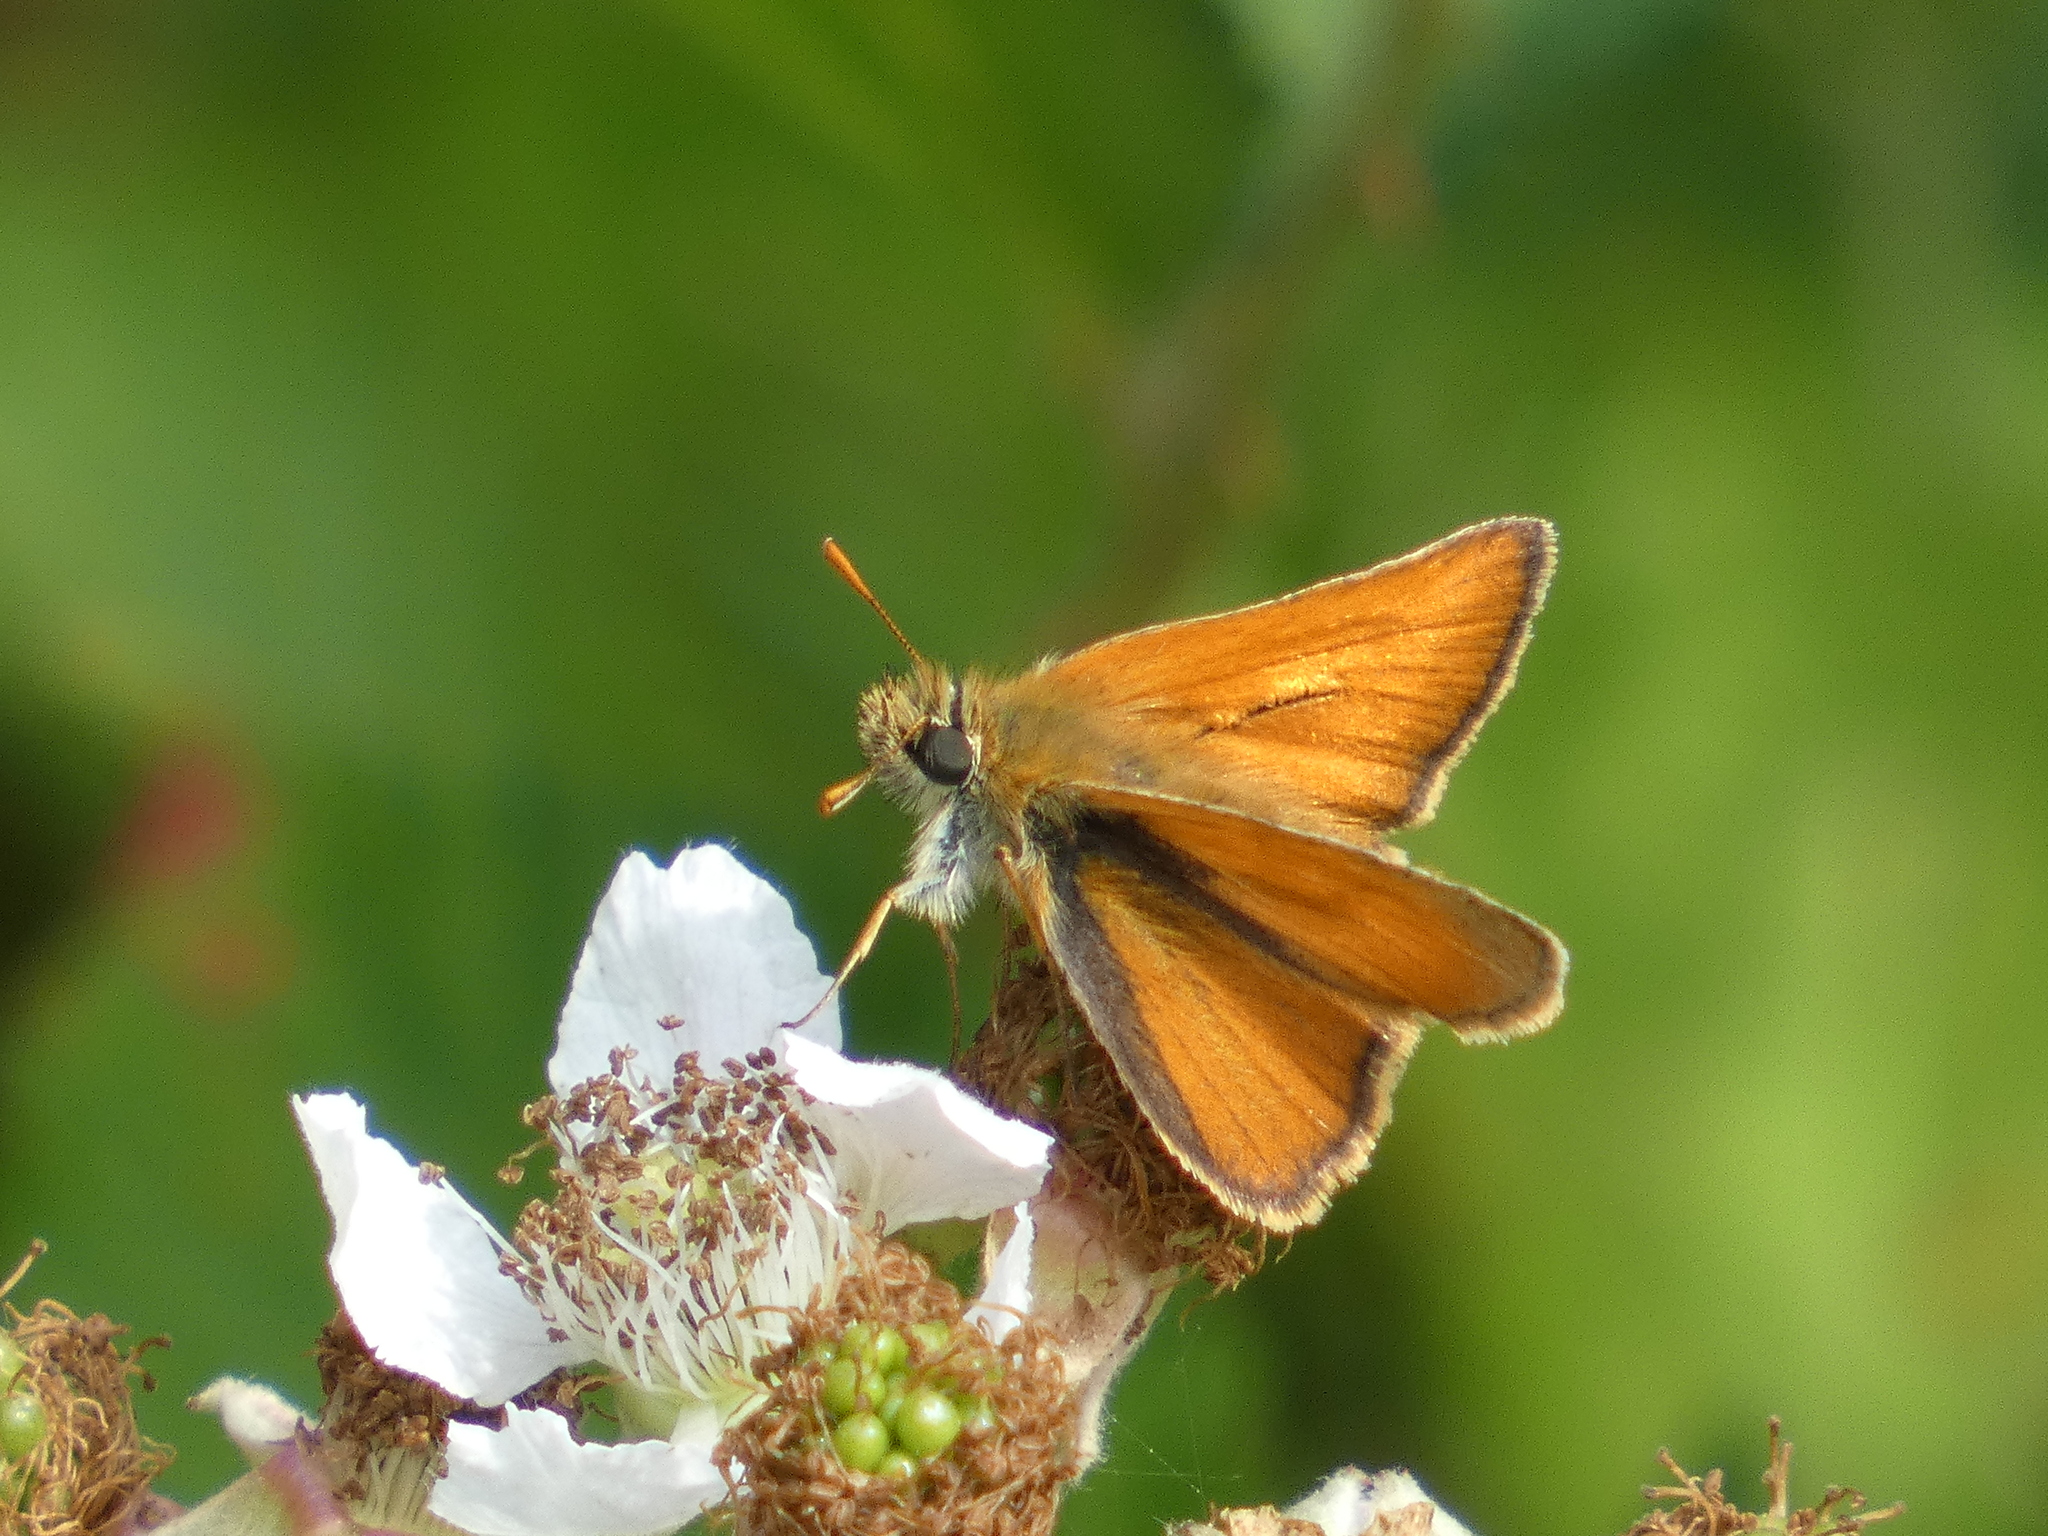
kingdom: Animalia
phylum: Arthropoda
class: Insecta
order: Lepidoptera
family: Hesperiidae
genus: Thymelicus
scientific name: Thymelicus sylvestris
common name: Small skipper
